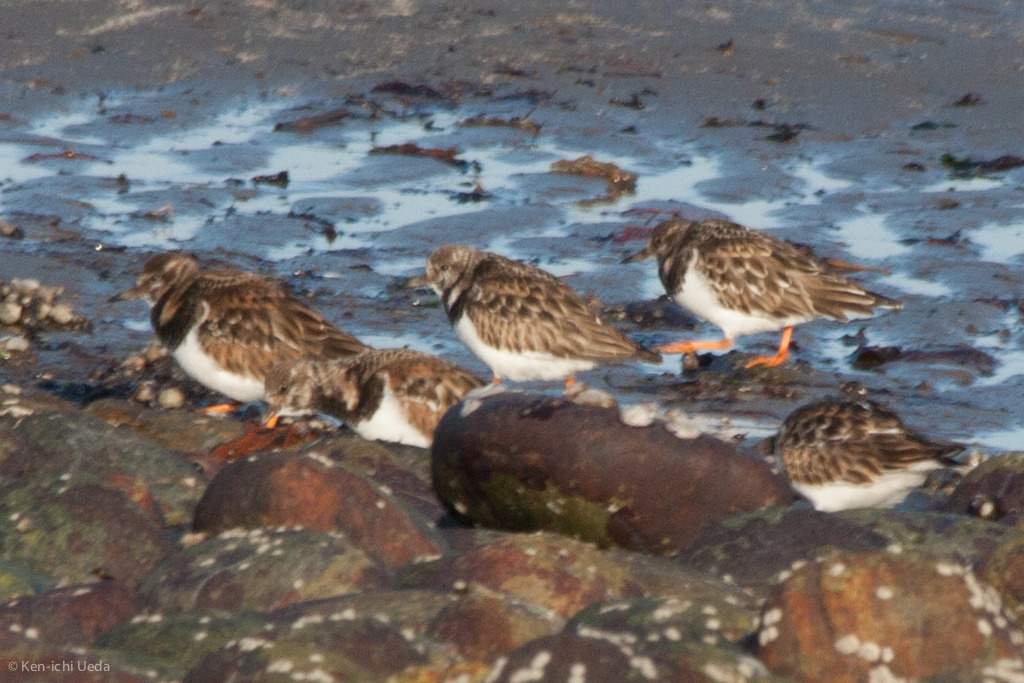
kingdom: Animalia
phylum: Chordata
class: Aves
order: Charadriiformes
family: Scolopacidae
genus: Arenaria
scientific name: Arenaria interpres
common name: Ruddy turnstone
